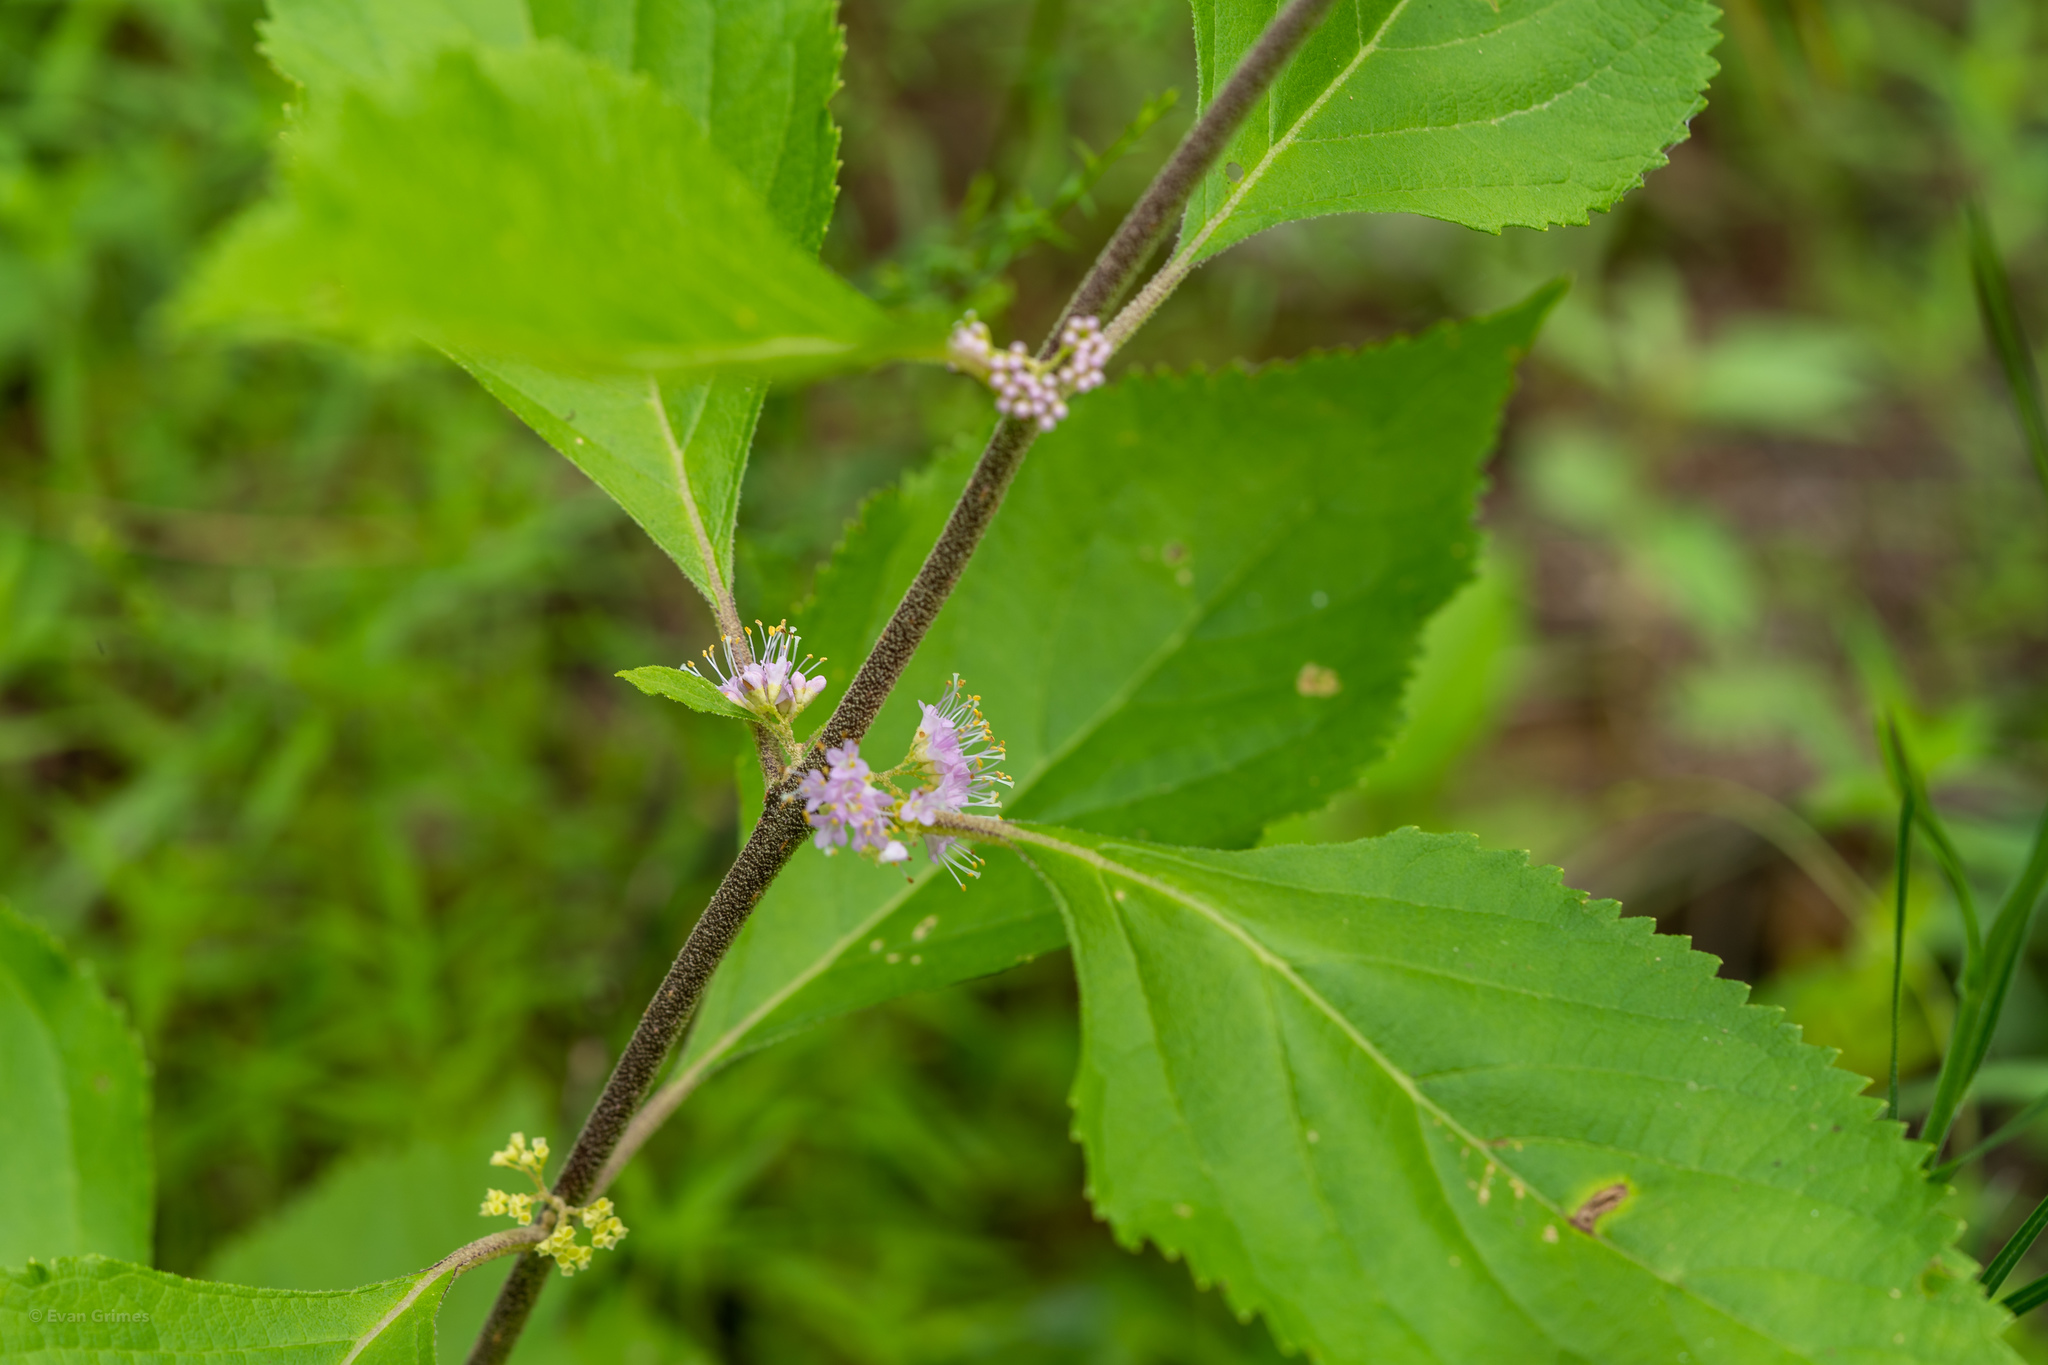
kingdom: Plantae
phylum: Tracheophyta
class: Magnoliopsida
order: Lamiales
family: Lamiaceae
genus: Callicarpa
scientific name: Callicarpa americana
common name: American beautyberry
